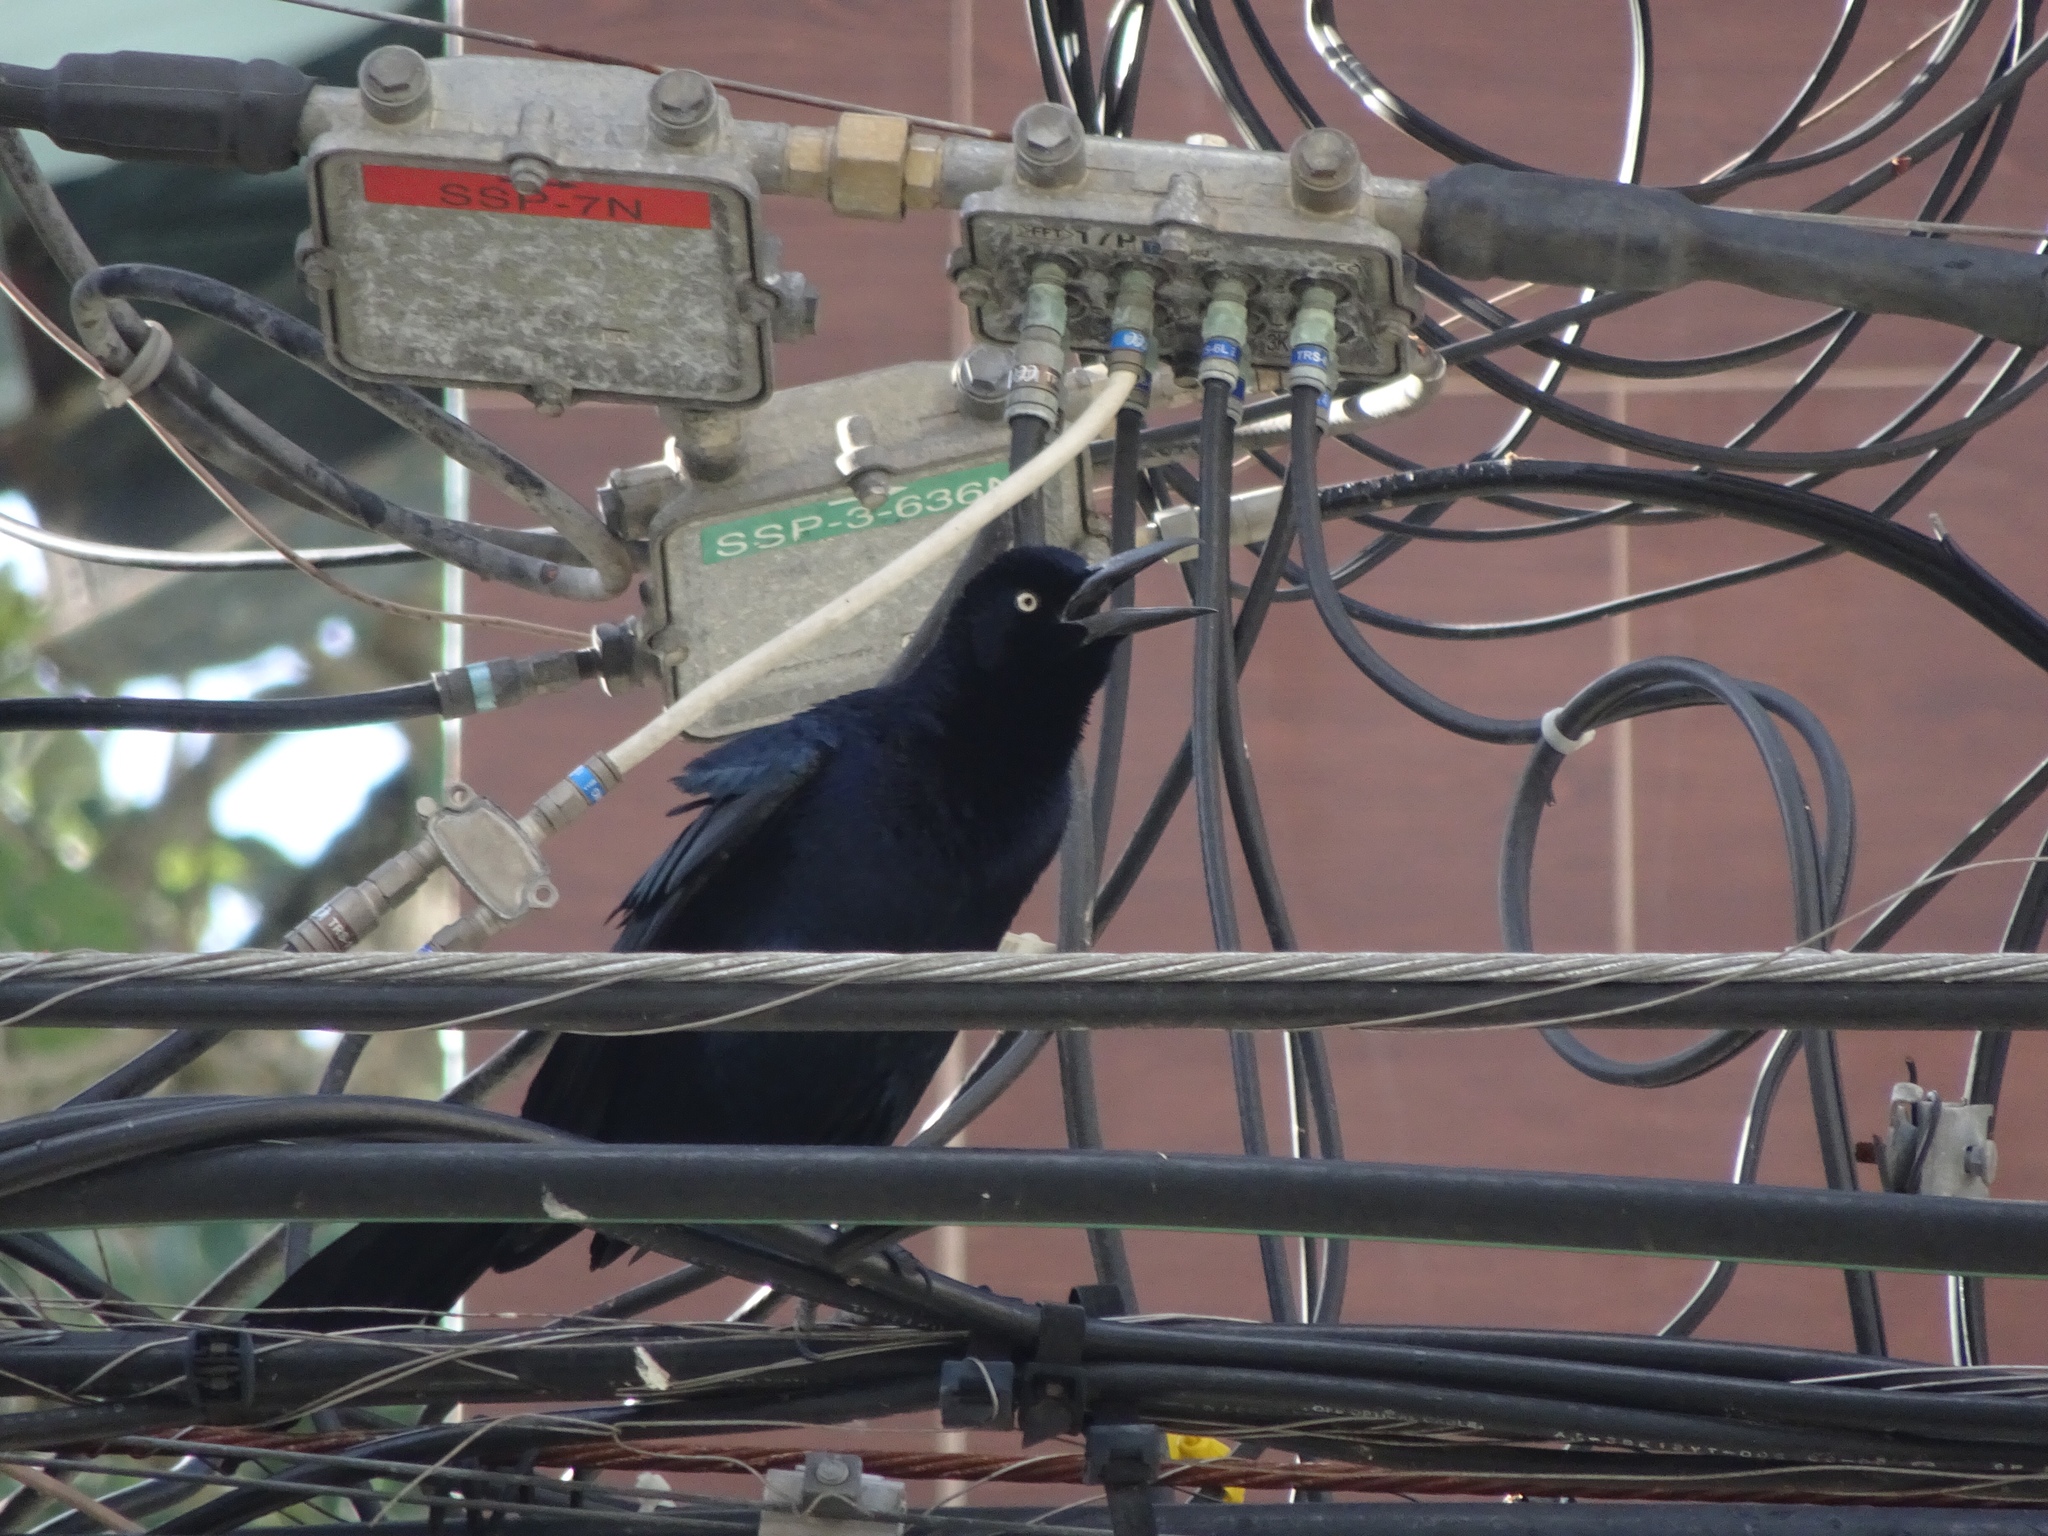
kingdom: Animalia
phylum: Chordata
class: Aves
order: Passeriformes
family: Icteridae
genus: Quiscalus
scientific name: Quiscalus mexicanus
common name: Great-tailed grackle
